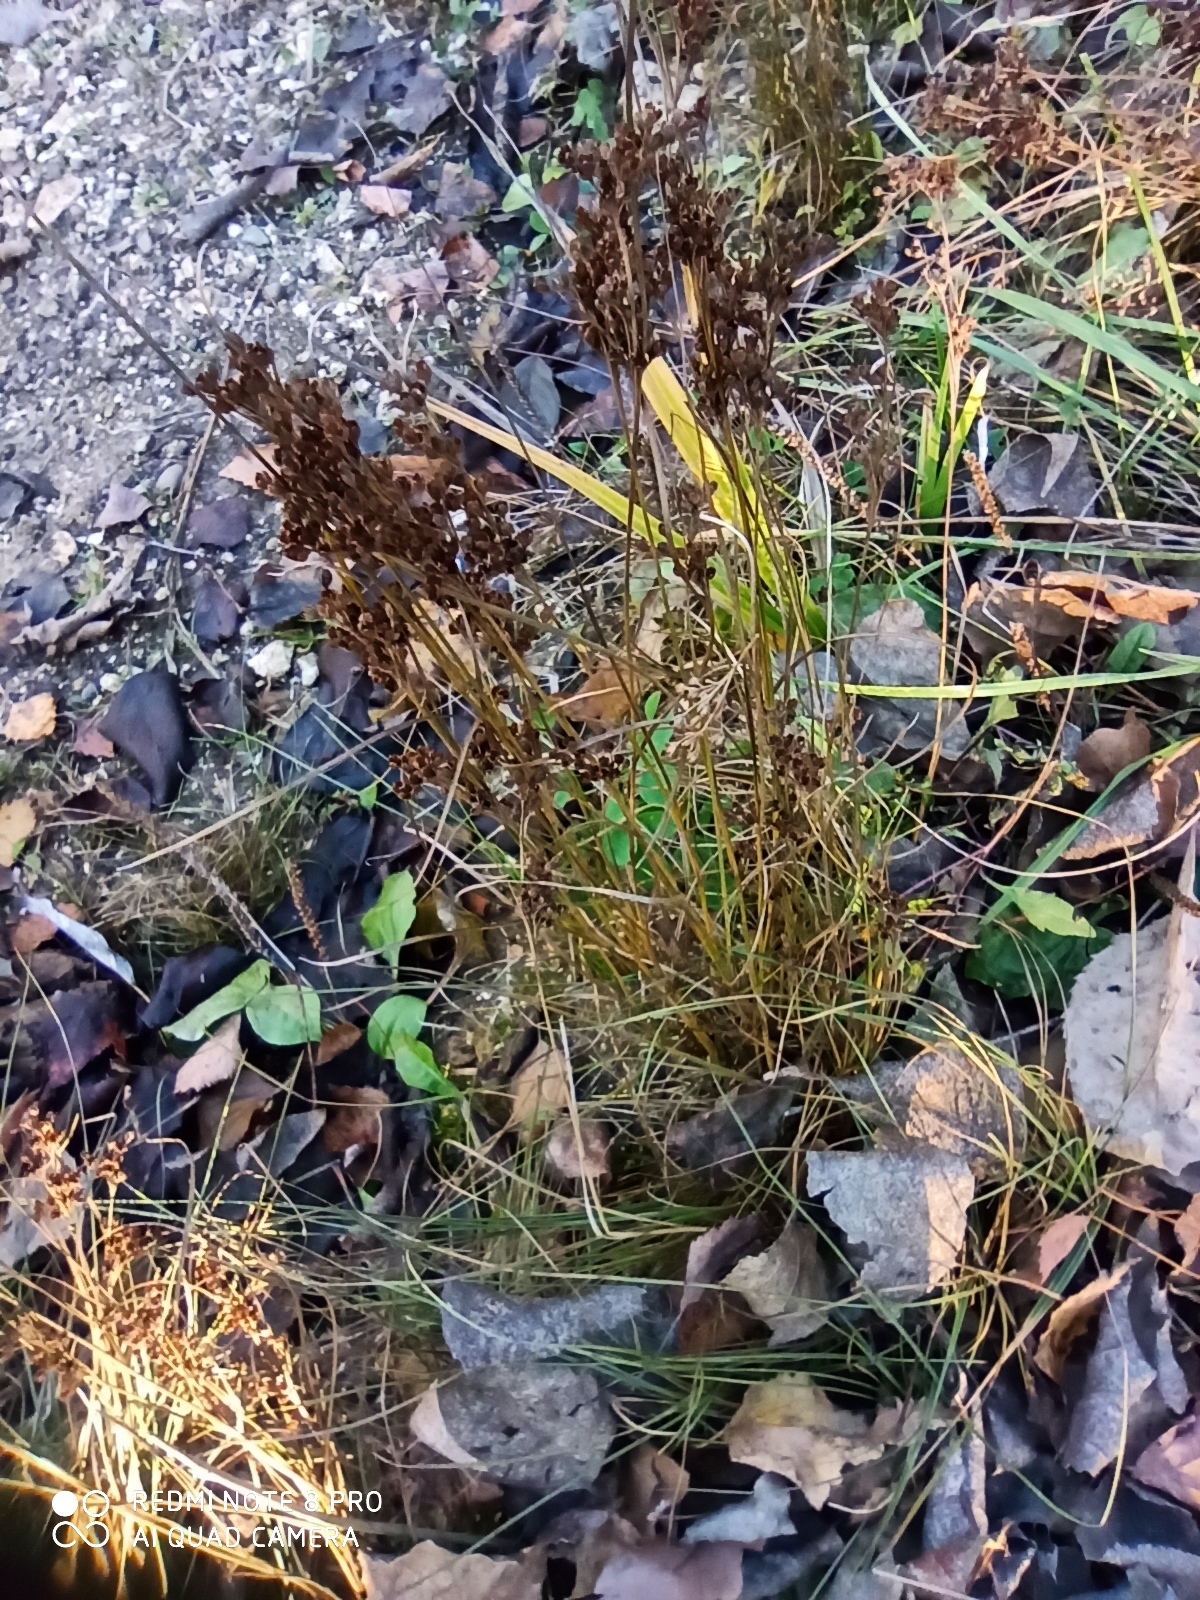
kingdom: Plantae
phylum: Tracheophyta
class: Liliopsida
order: Poales
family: Juncaceae
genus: Juncus
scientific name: Juncus compressus
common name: Round-fruited rush
